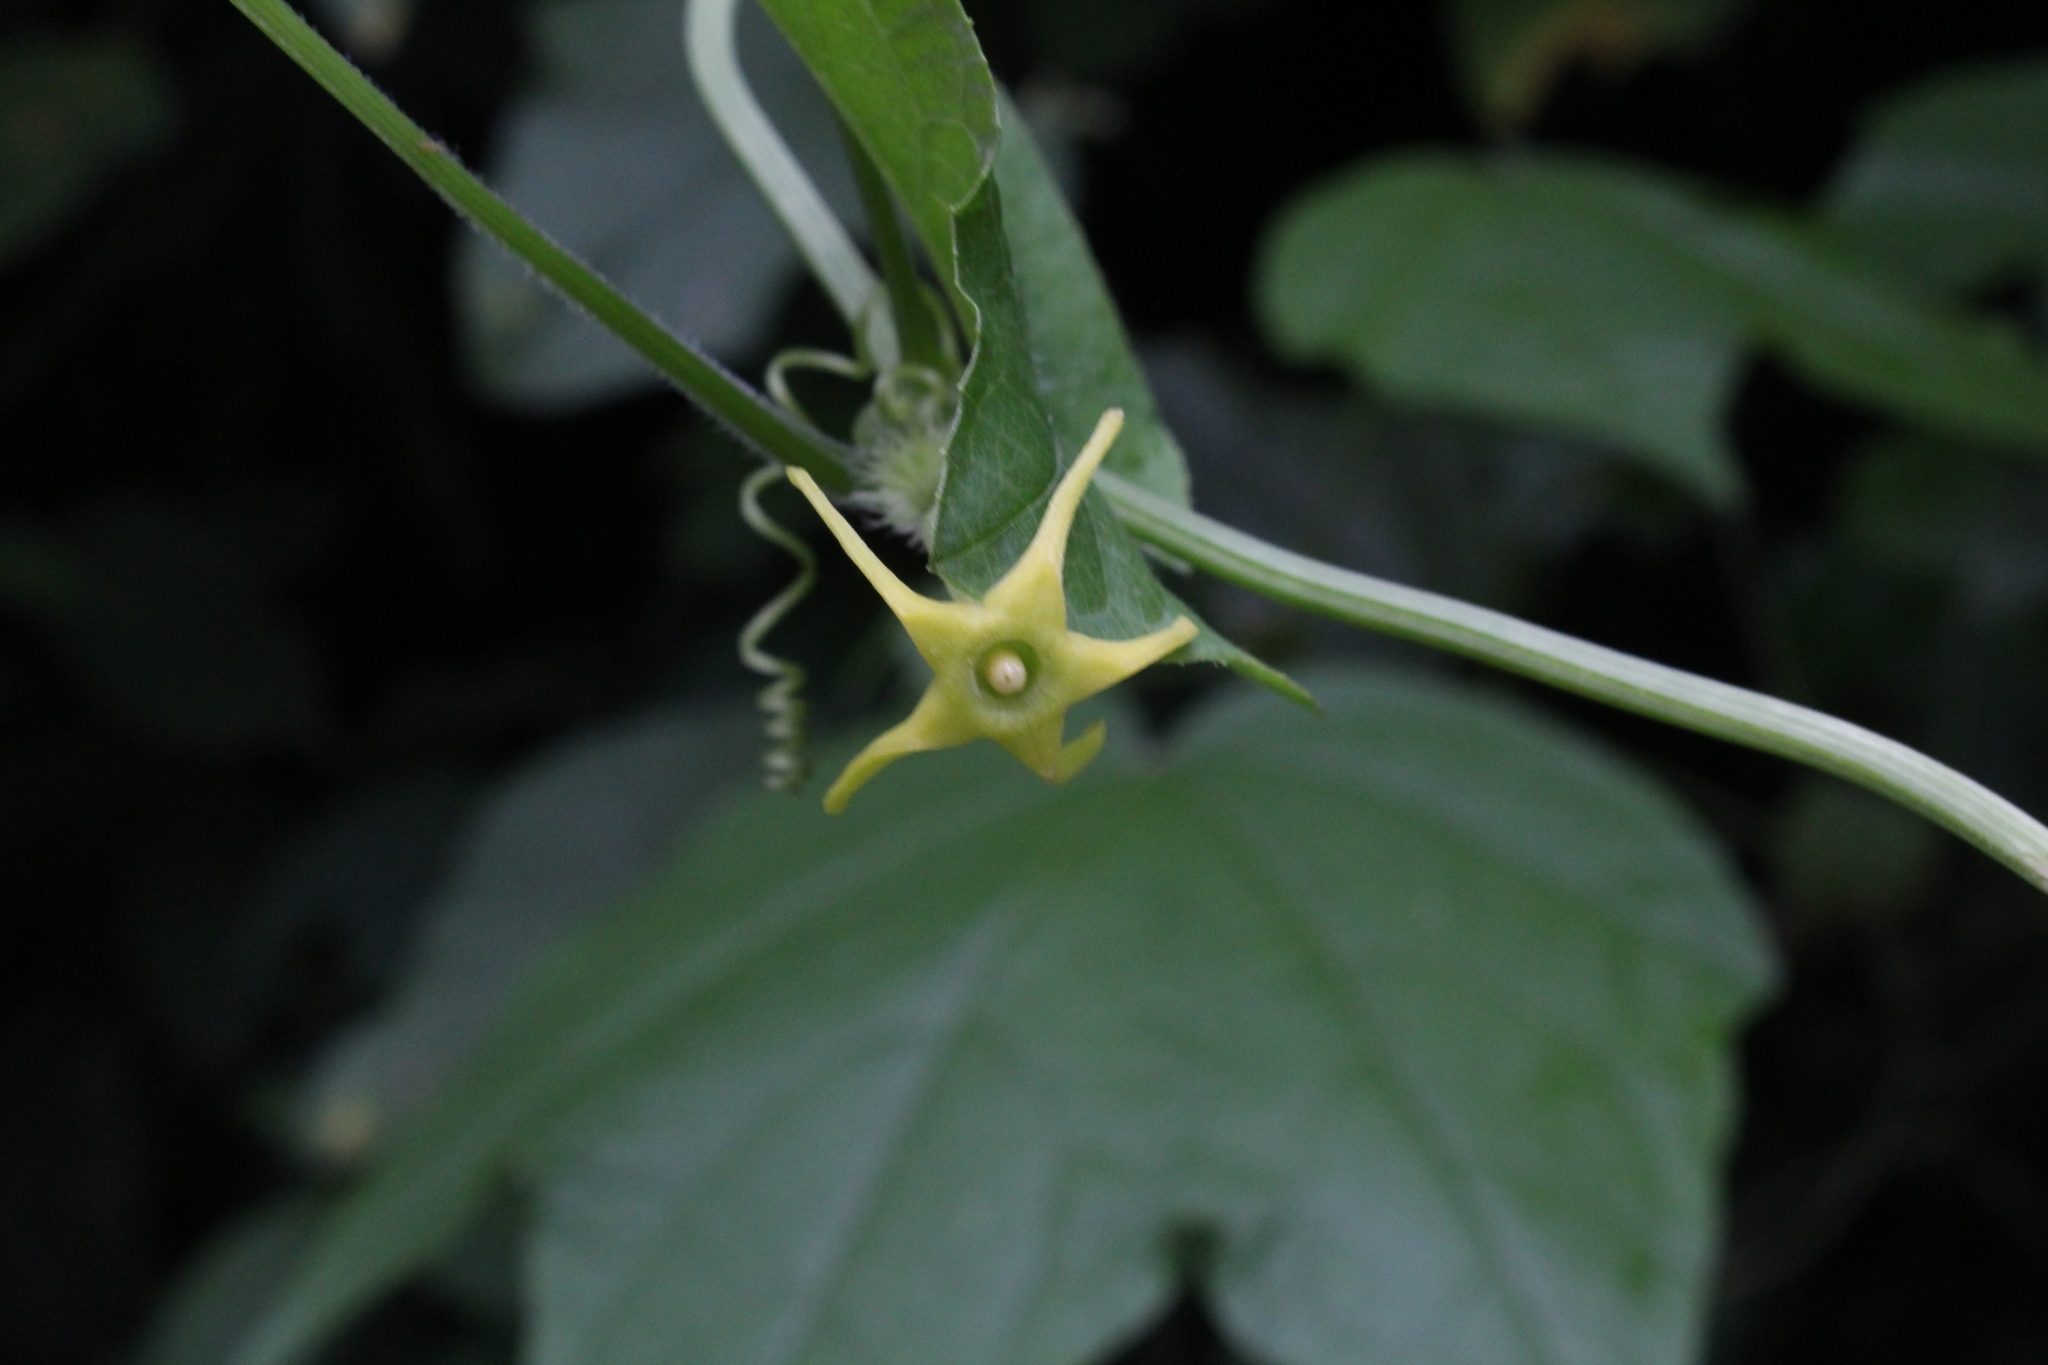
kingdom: Plantae
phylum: Tracheophyta
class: Magnoliopsida
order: Cucurbitales
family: Cucurbitaceae
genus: Cyclanthera
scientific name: Cyclanthera carthagenensis
